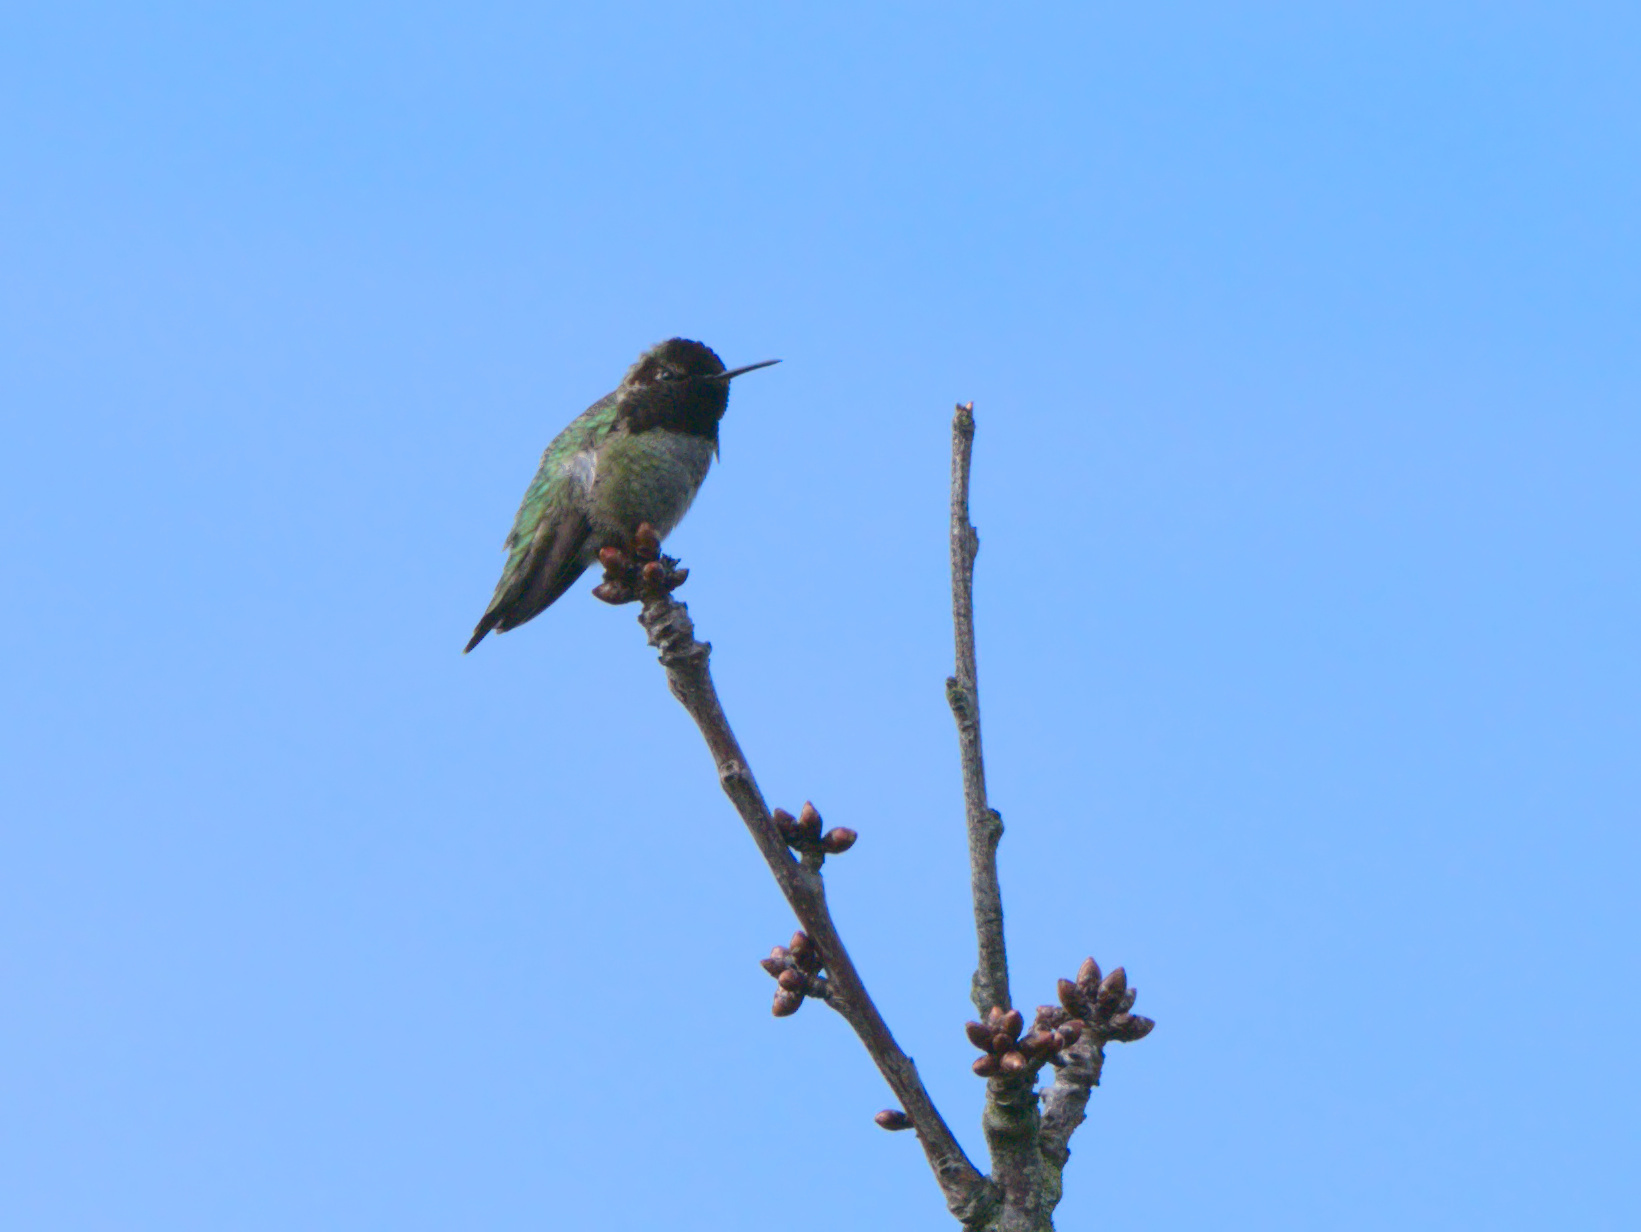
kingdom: Animalia
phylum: Chordata
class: Aves
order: Apodiformes
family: Trochilidae
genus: Calypte
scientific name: Calypte anna
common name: Anna's hummingbird
